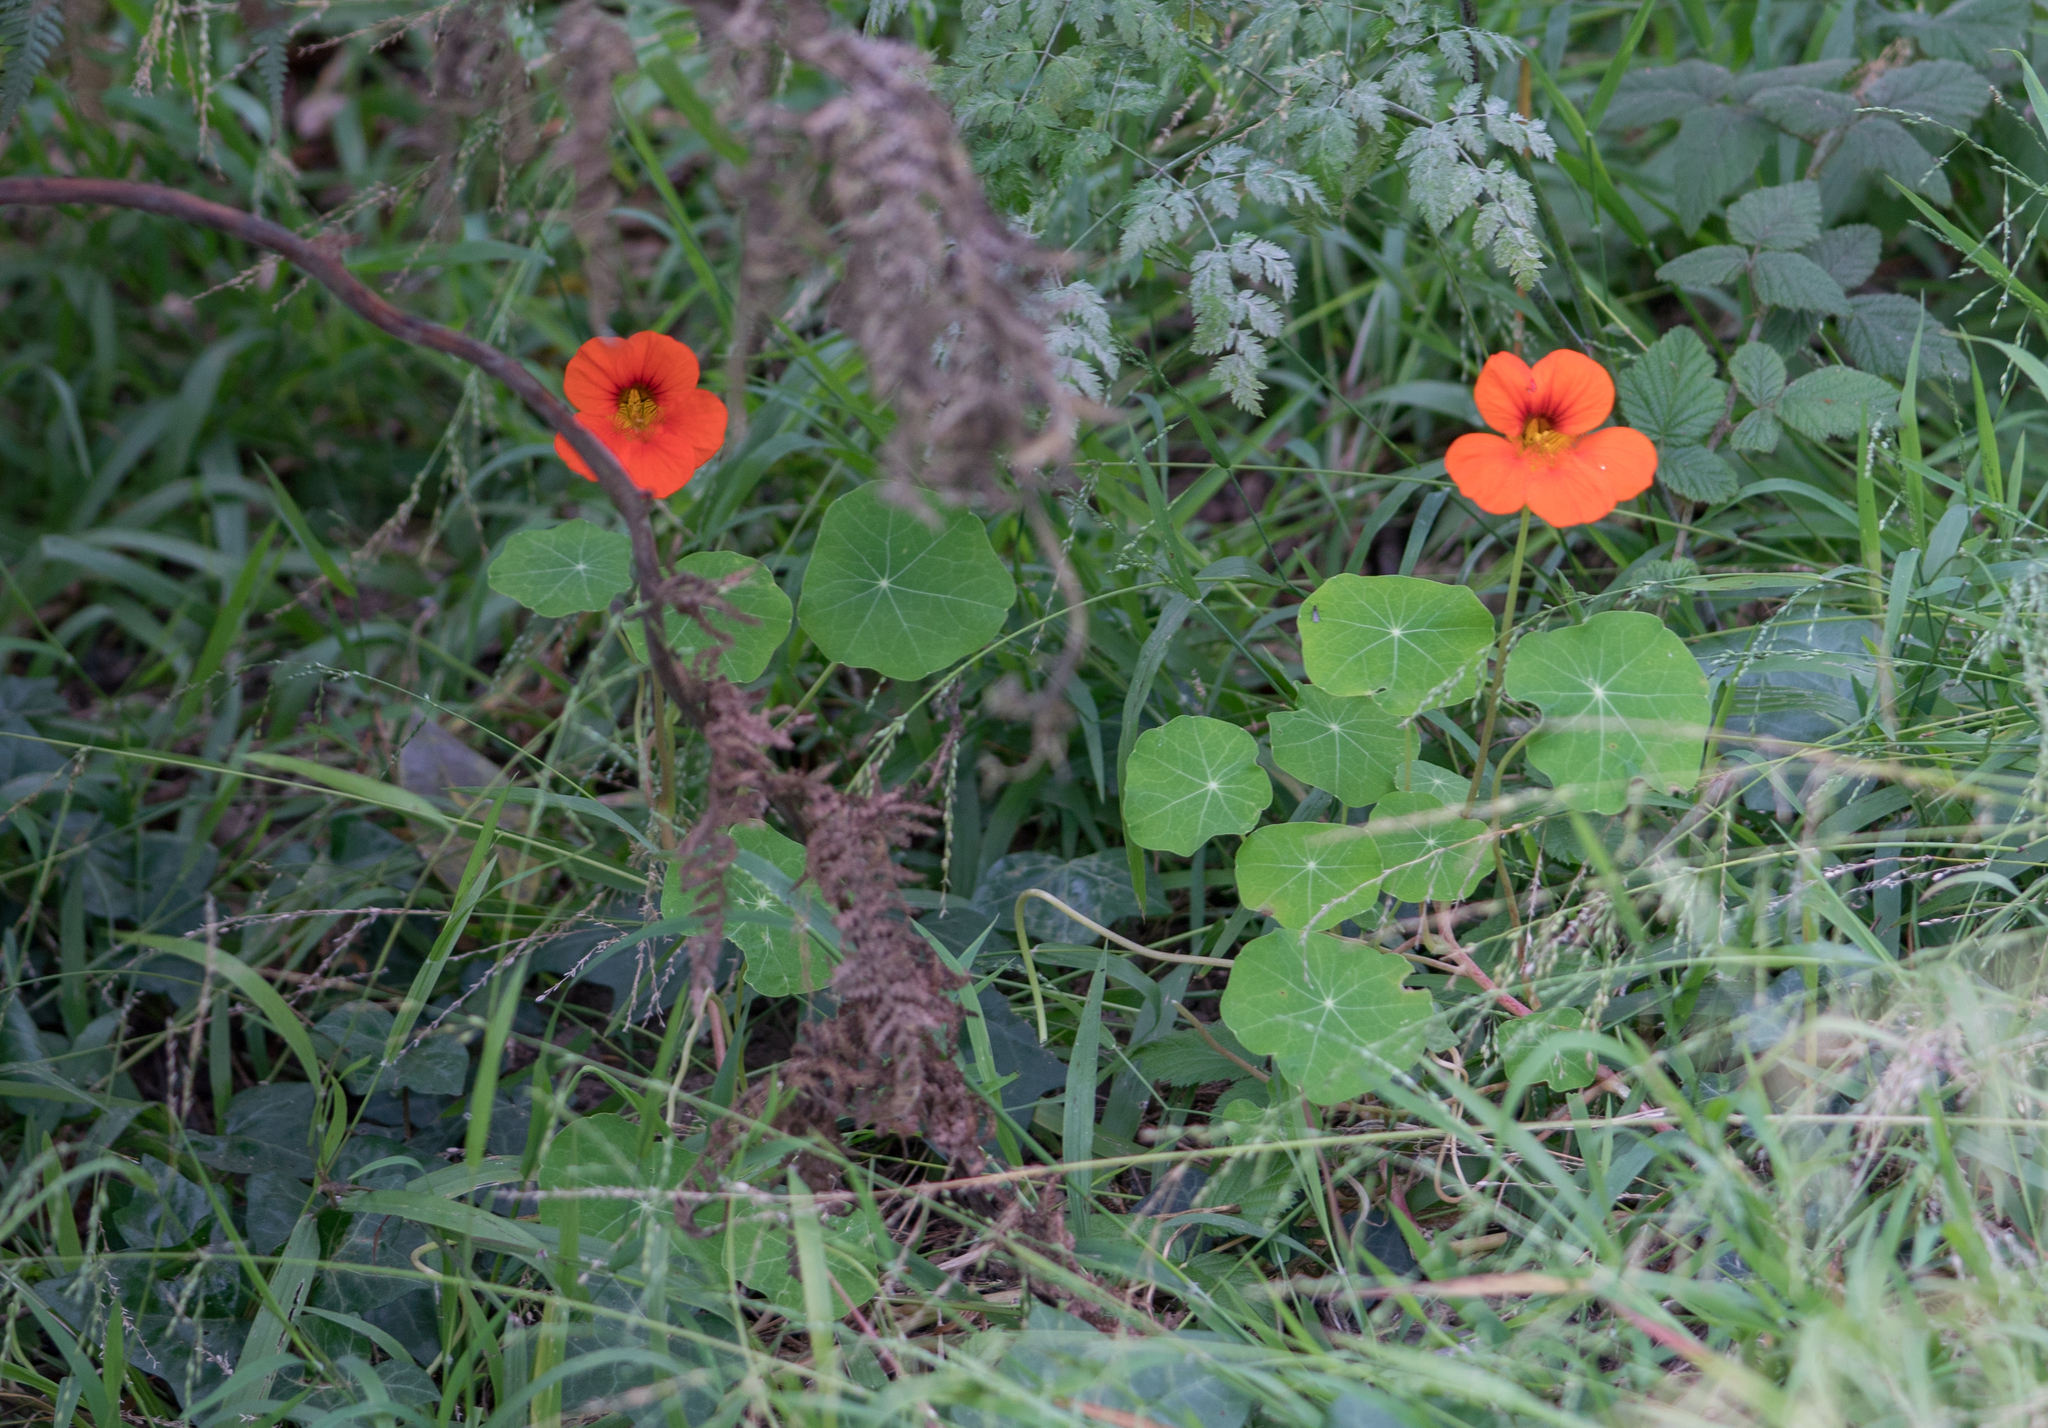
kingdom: Plantae
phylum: Tracheophyta
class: Magnoliopsida
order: Brassicales
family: Tropaeolaceae
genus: Tropaeolum
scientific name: Tropaeolum majus
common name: Nasturtium
